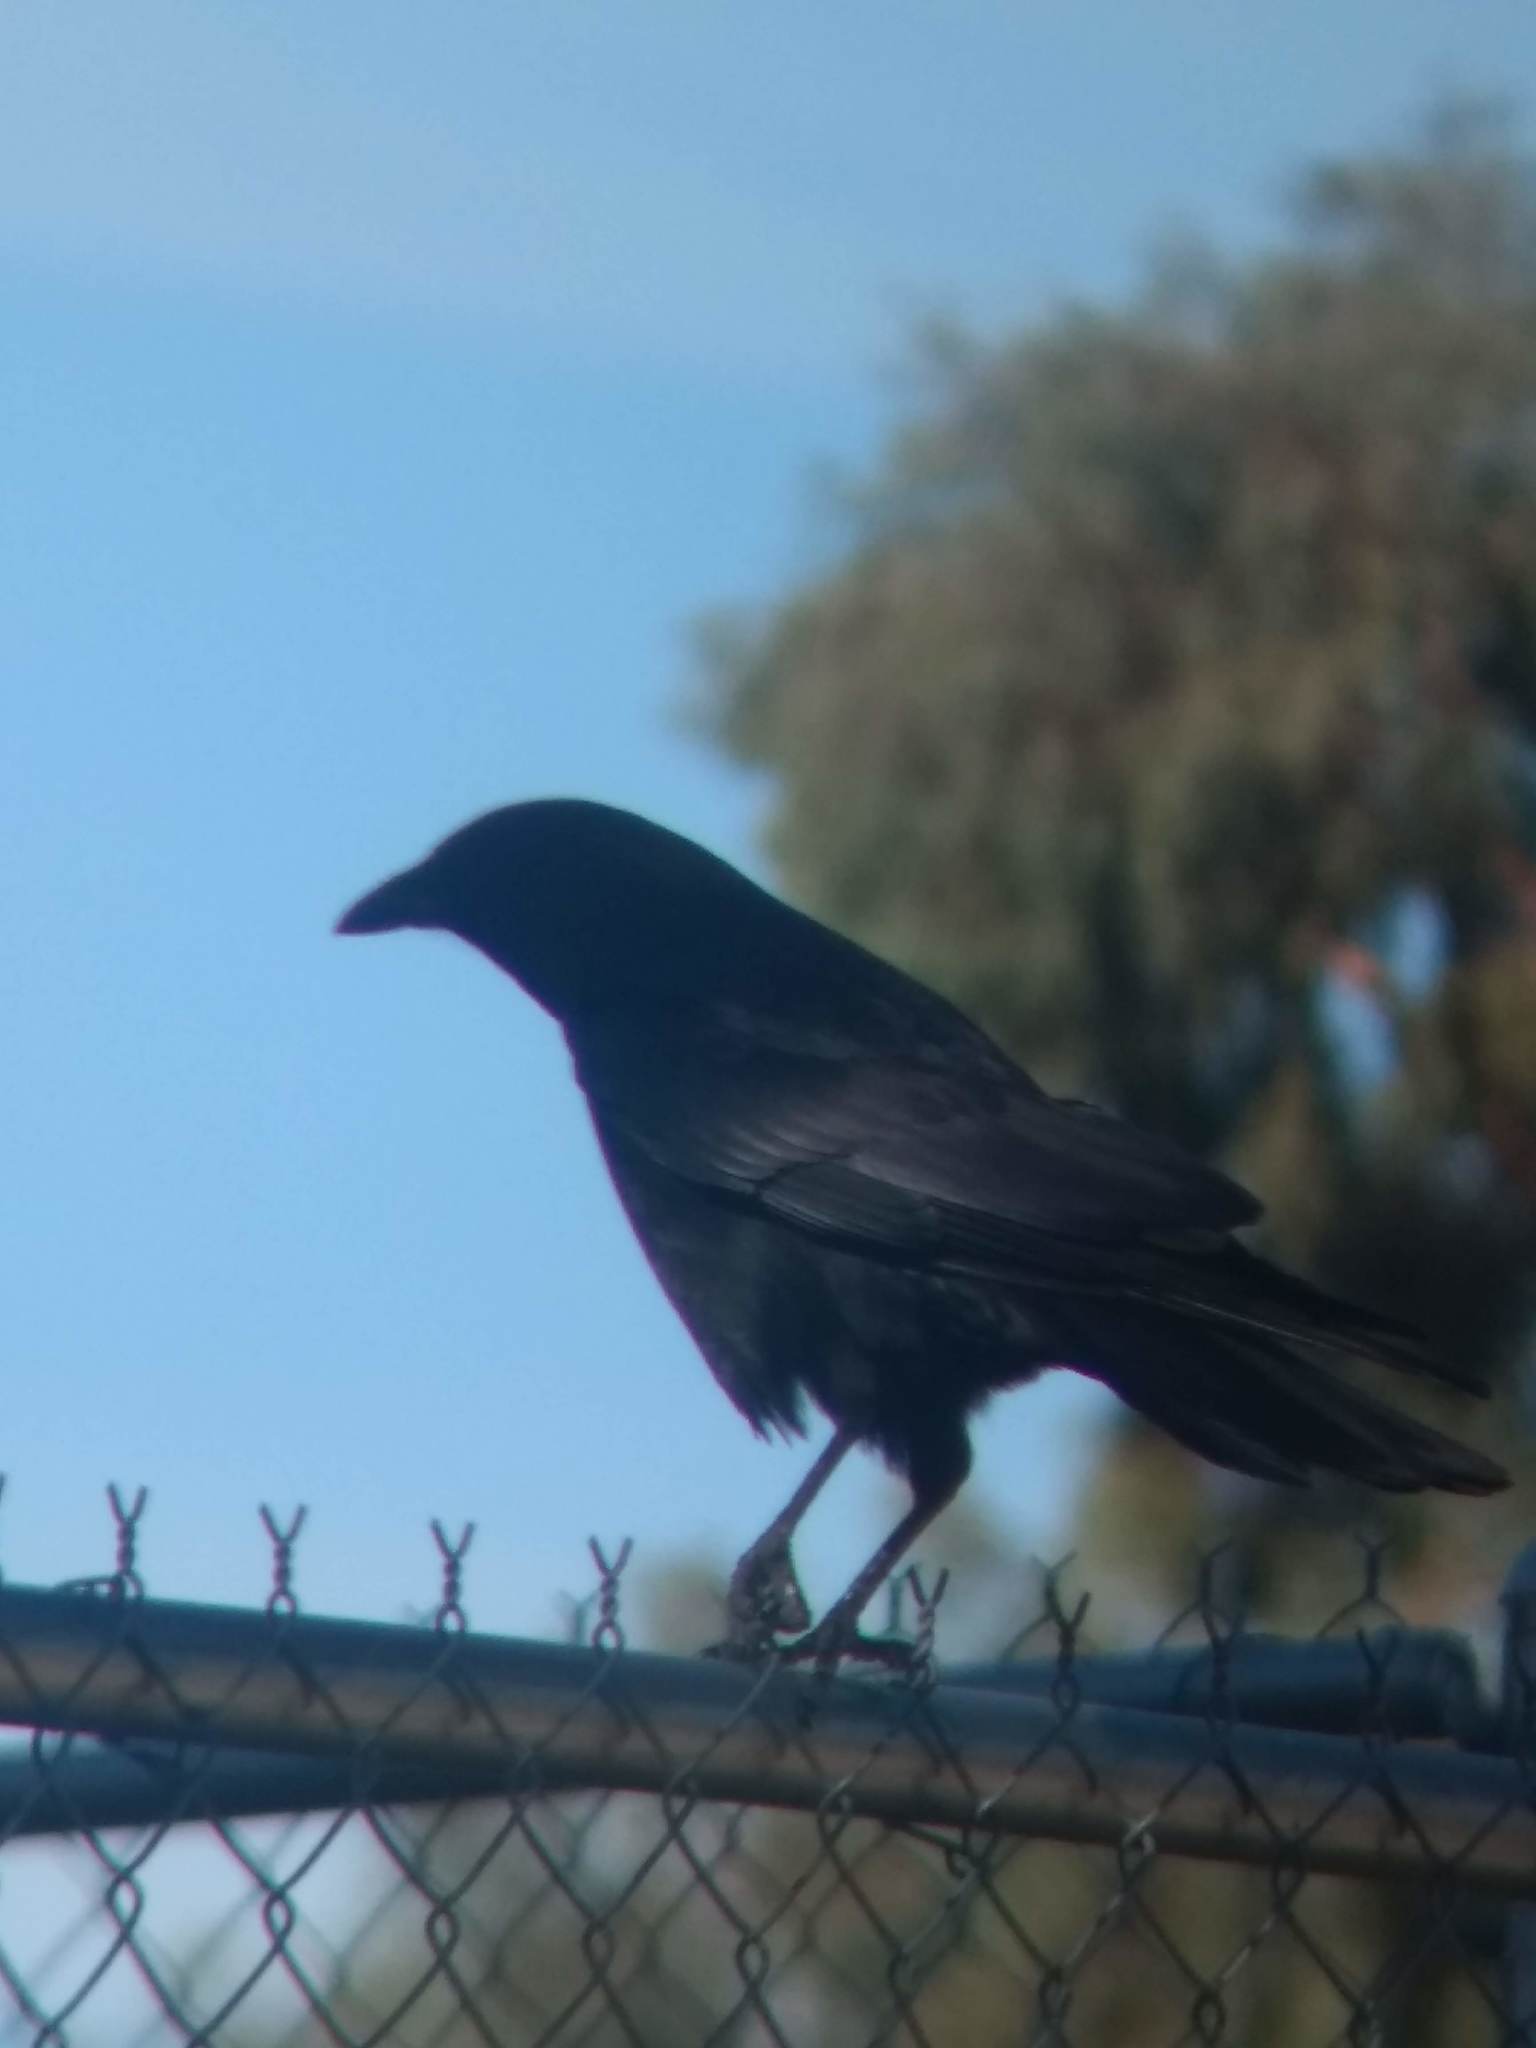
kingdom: Animalia
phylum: Chordata
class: Aves
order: Passeriformes
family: Corvidae
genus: Corvus
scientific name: Corvus brachyrhynchos
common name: American crow
